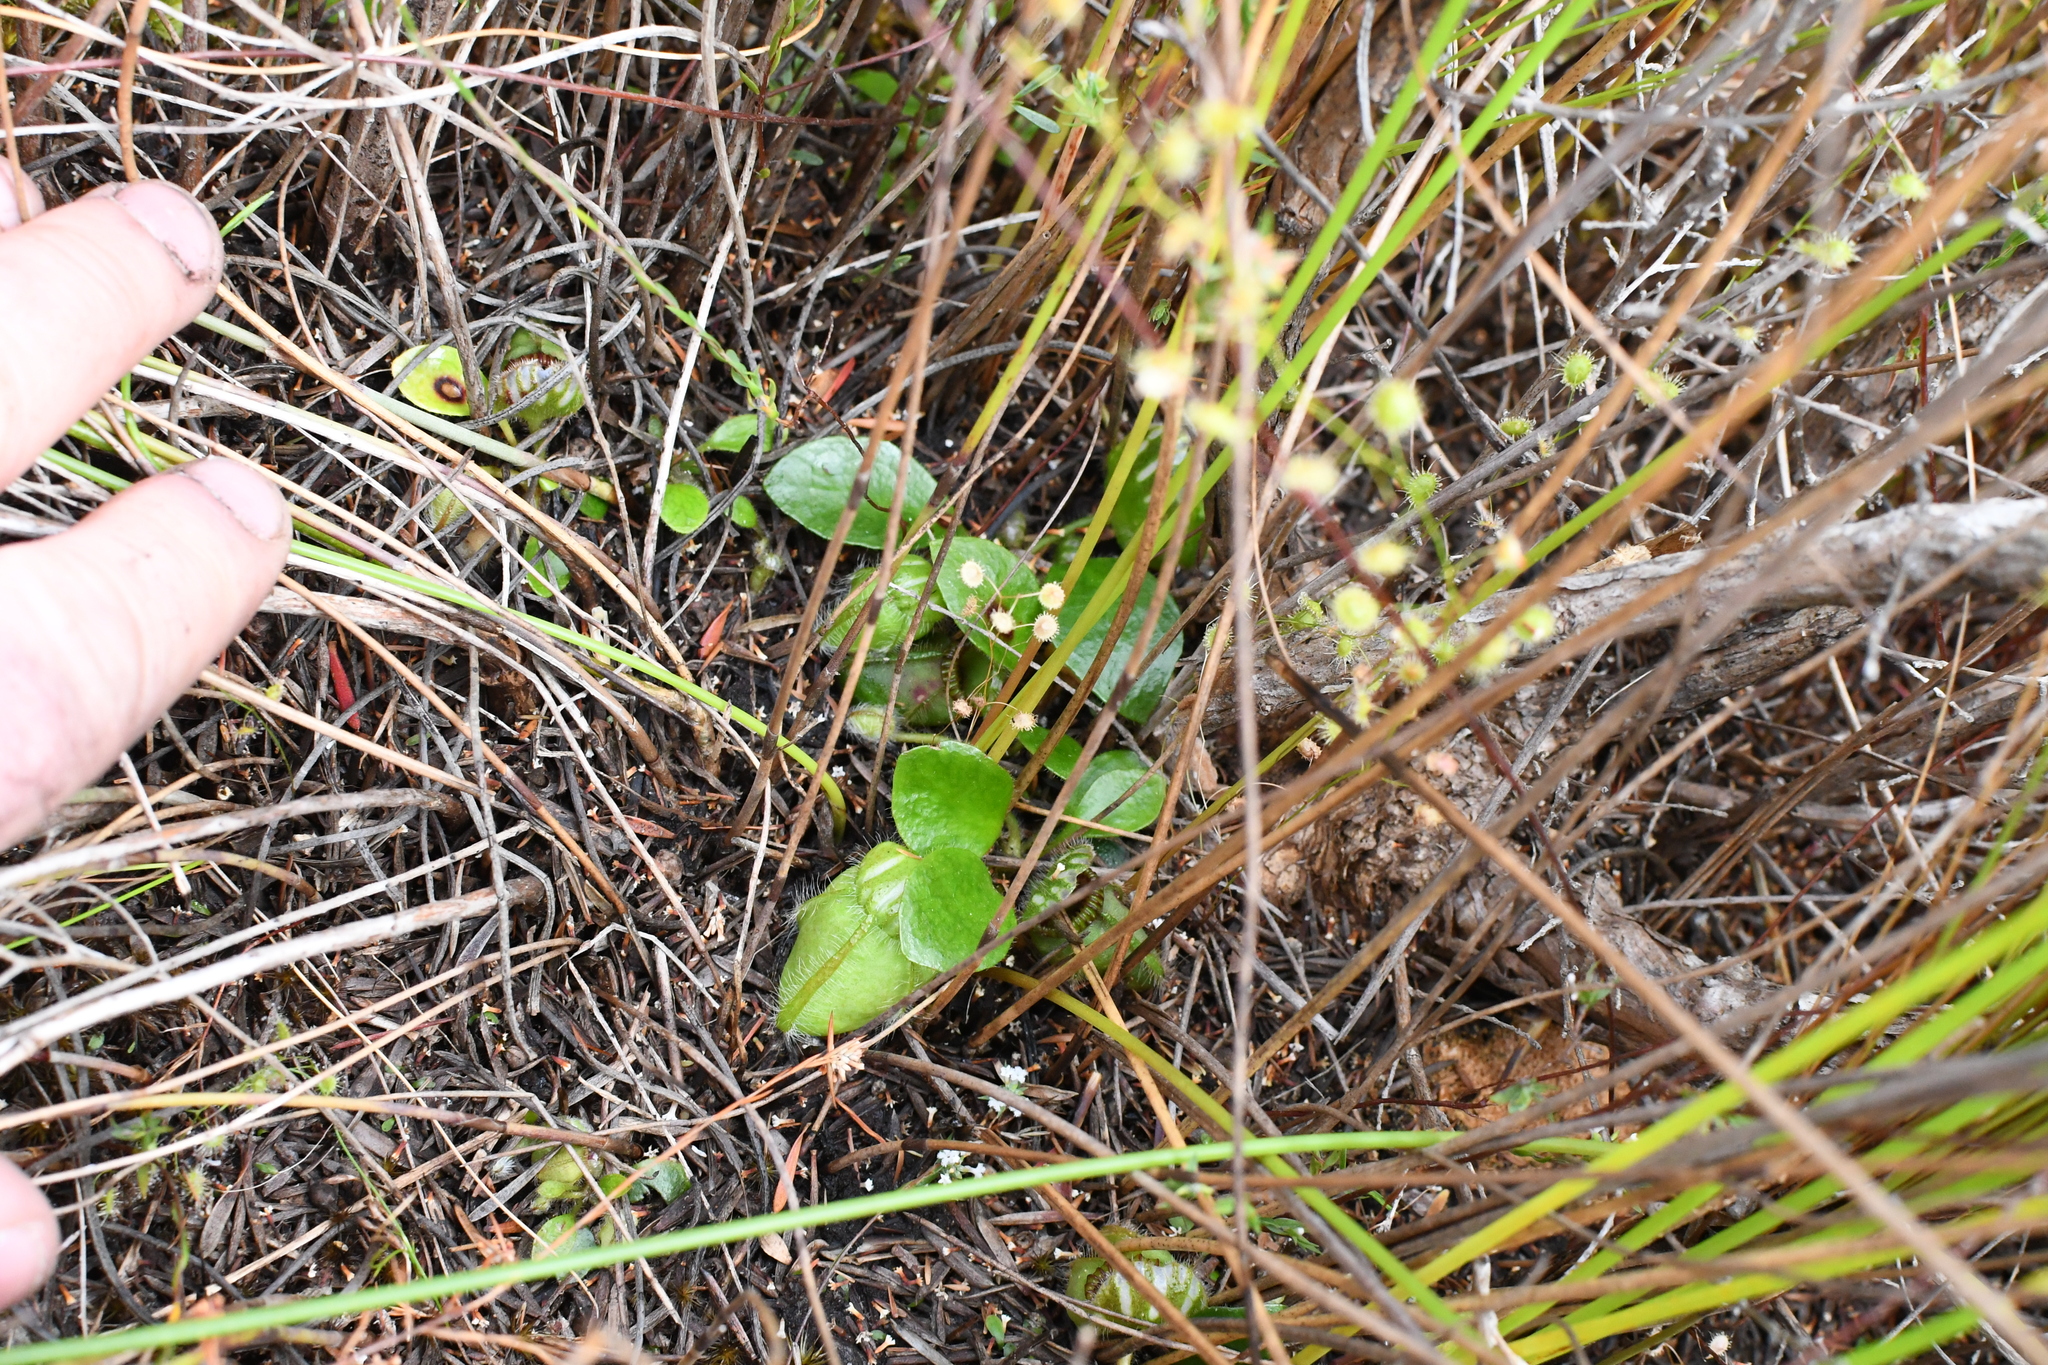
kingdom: Plantae
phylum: Tracheophyta
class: Magnoliopsida
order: Oxalidales
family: Cephalotaceae
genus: Cephalotus
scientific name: Cephalotus follicularis
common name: Australian pitcher plant
